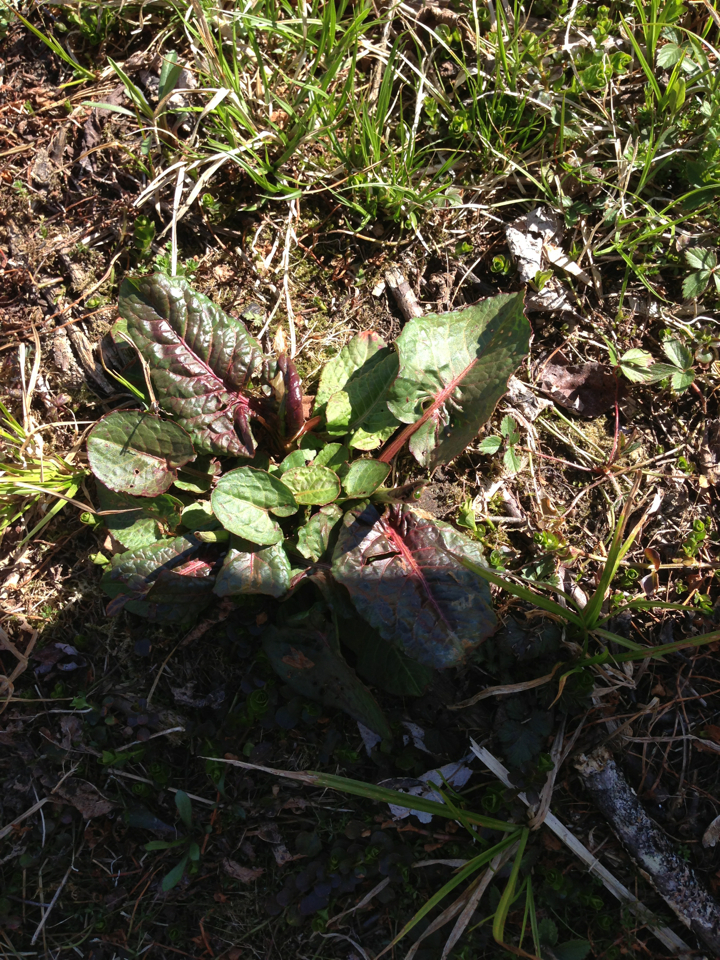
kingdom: Plantae
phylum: Tracheophyta
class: Magnoliopsida
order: Caryophyllales
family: Polygonaceae
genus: Rumex
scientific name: Rumex obtusifolius
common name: Bitter dock
